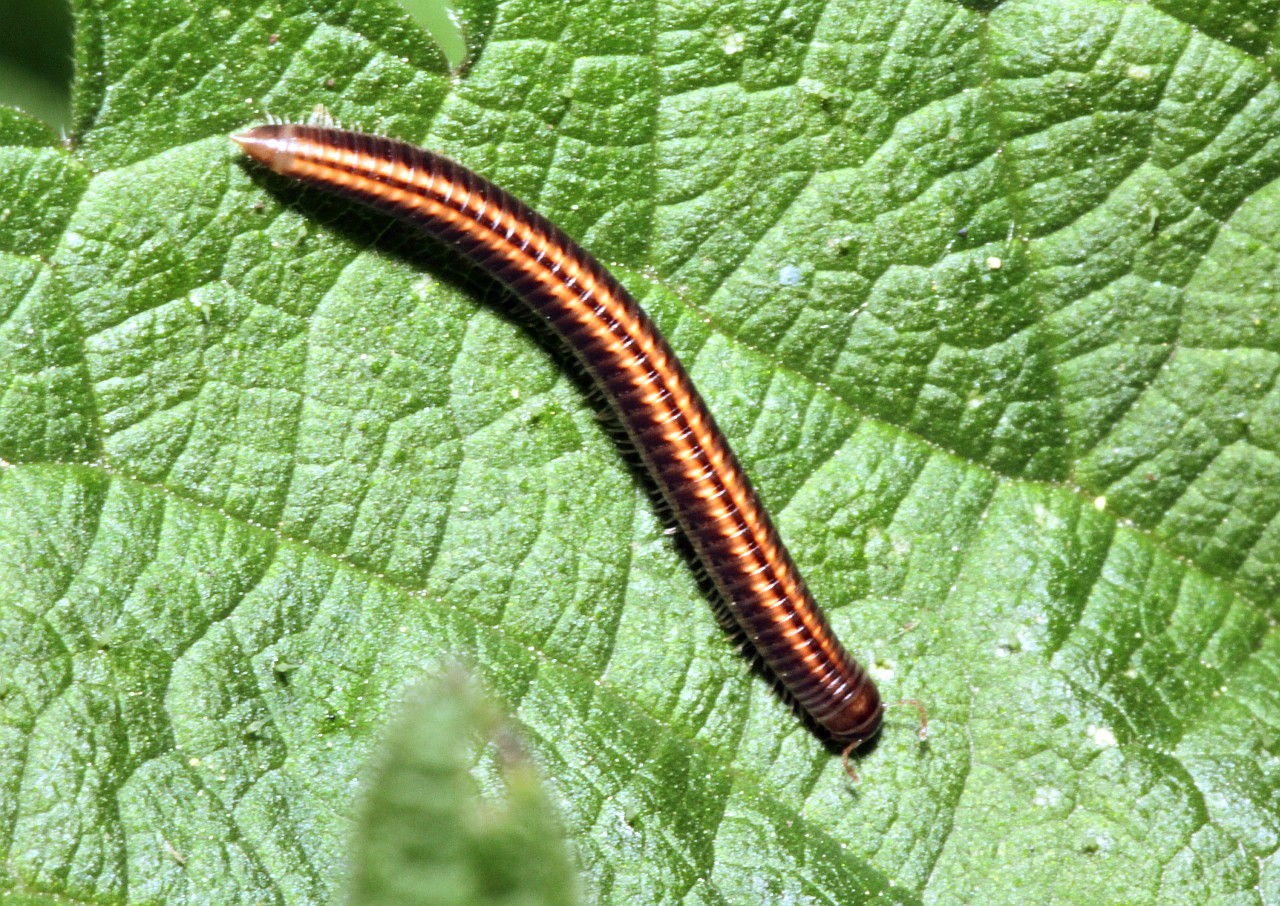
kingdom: Animalia
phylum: Arthropoda
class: Diplopoda
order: Julida
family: Julidae
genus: Ommatoiulus
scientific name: Ommatoiulus sabulosus
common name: Striped millipede
